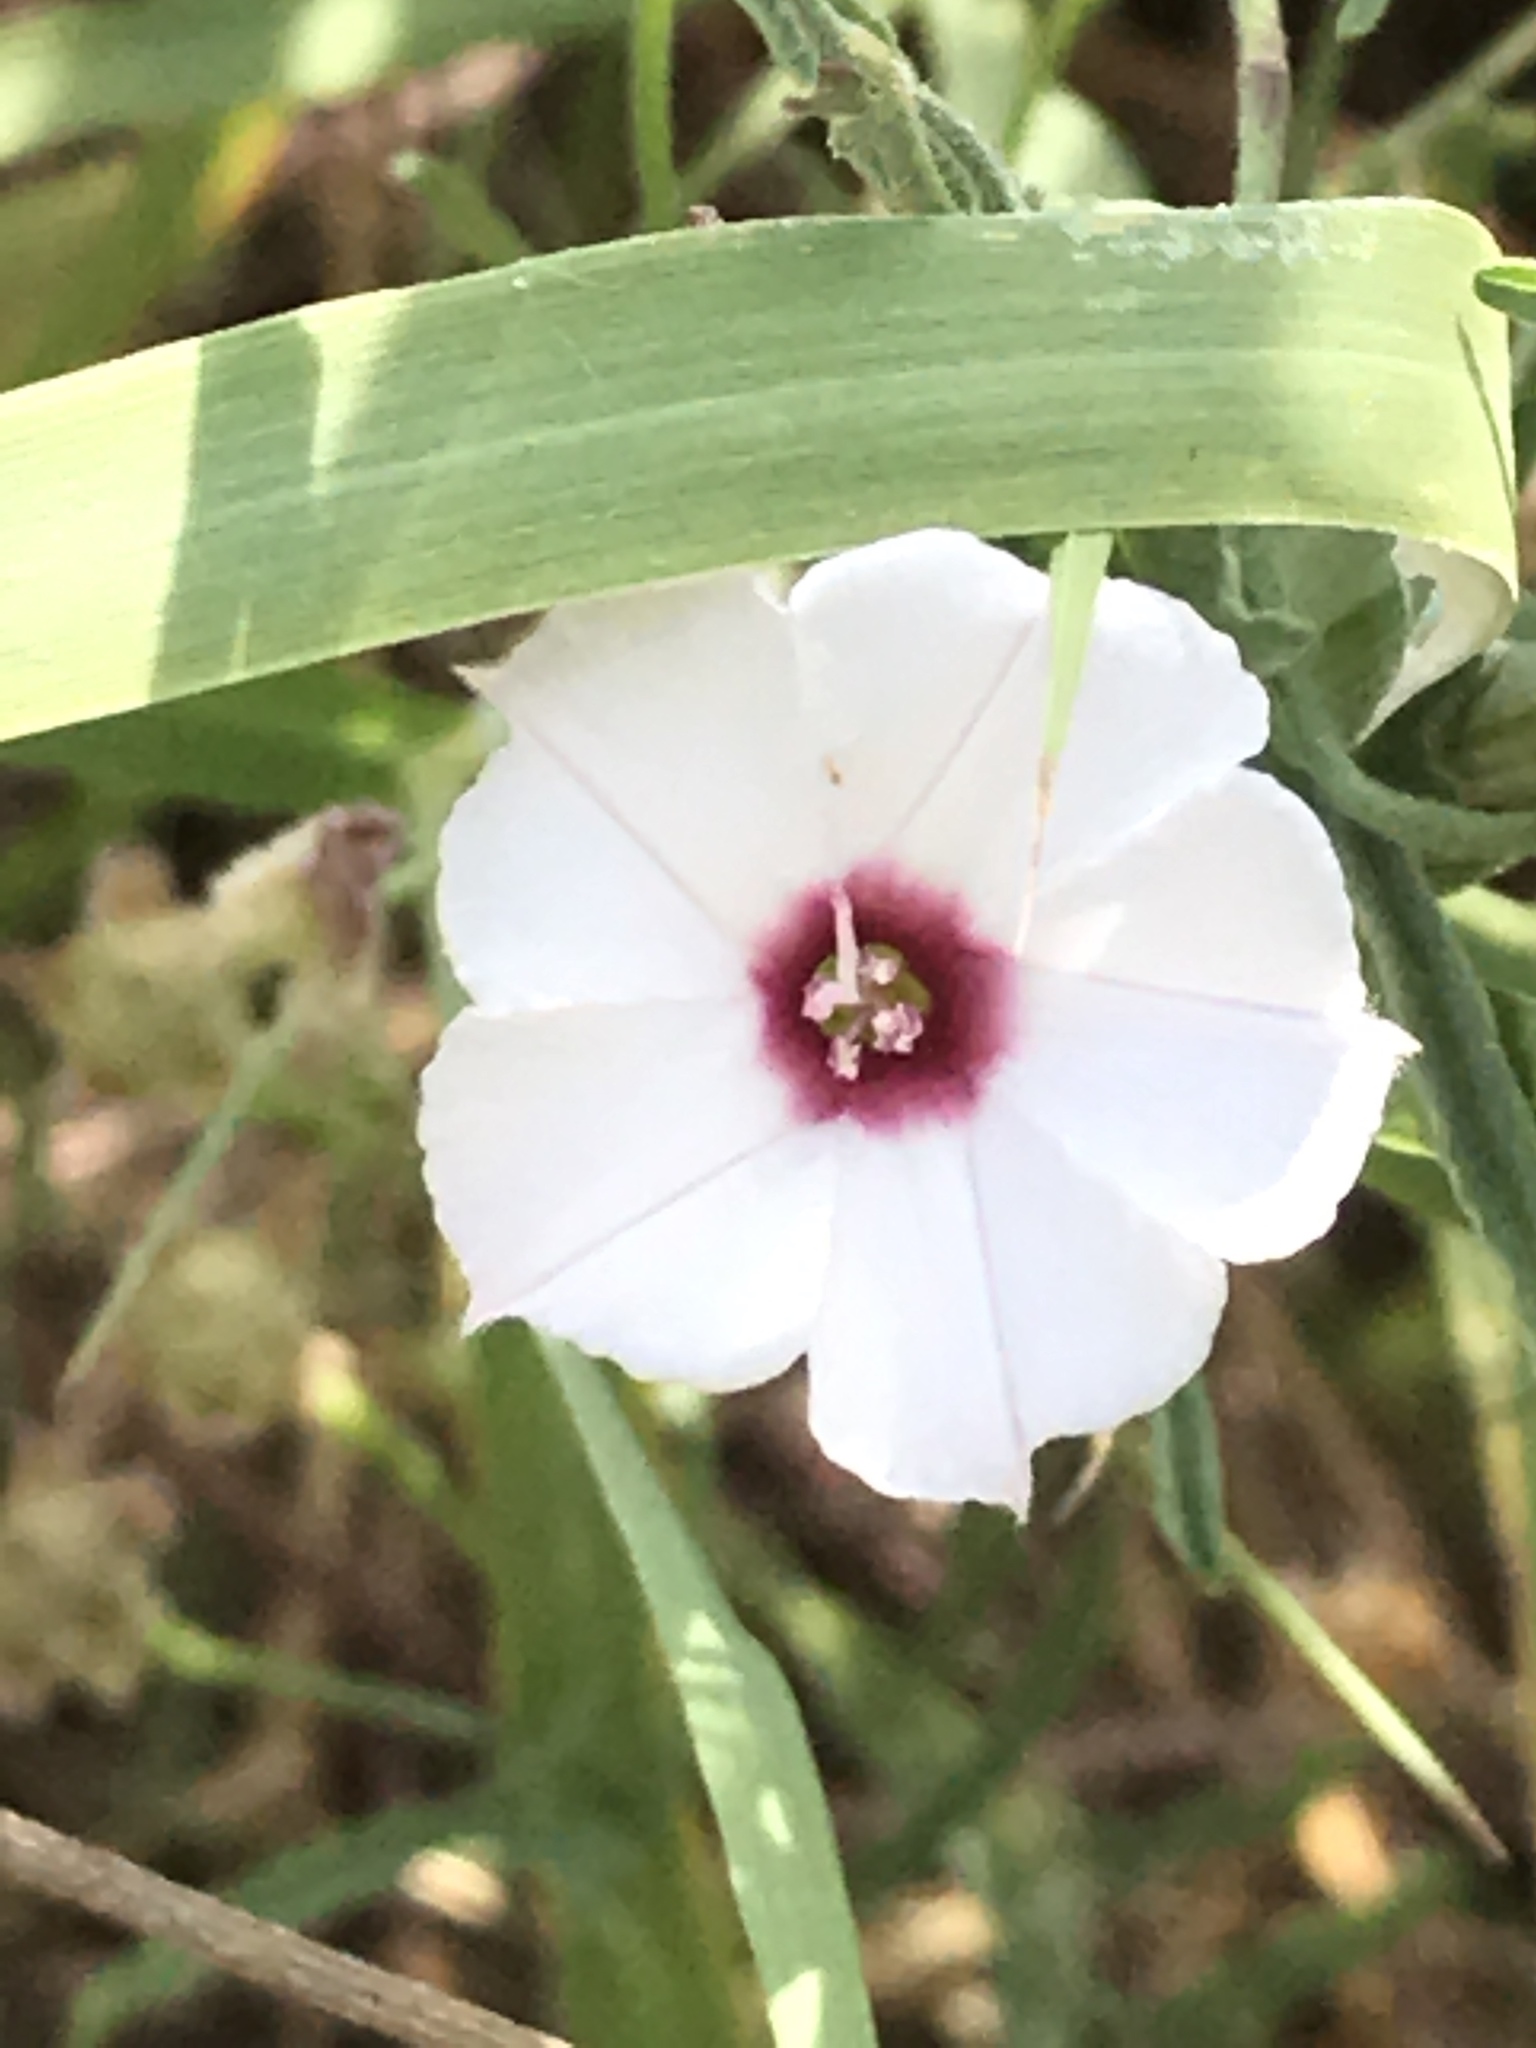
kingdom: Plantae
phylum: Tracheophyta
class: Magnoliopsida
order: Solanales
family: Convolvulaceae
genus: Convolvulus
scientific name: Convolvulus equitans
